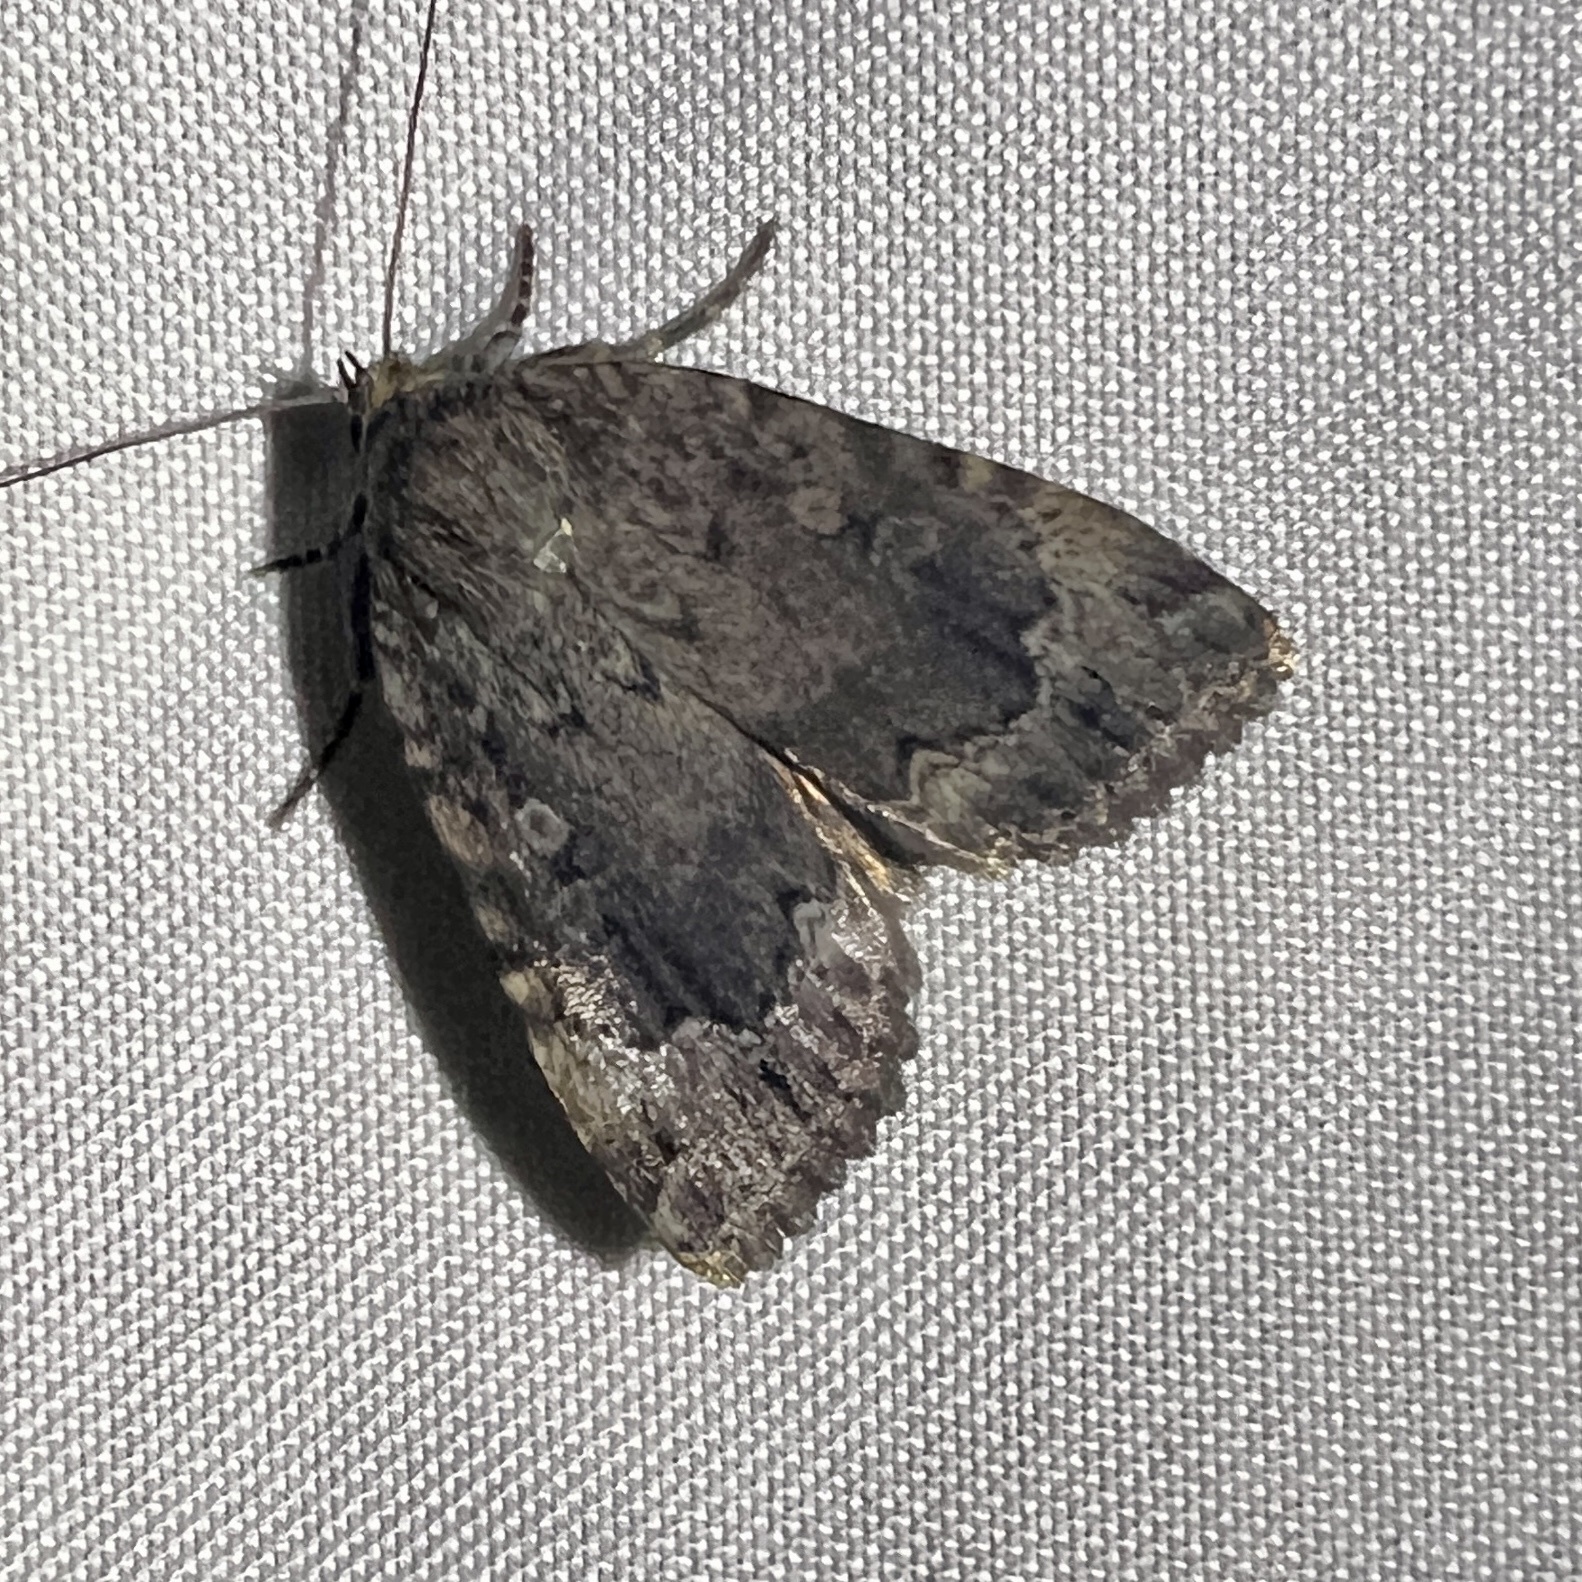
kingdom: Animalia
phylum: Arthropoda
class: Insecta
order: Lepidoptera
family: Noctuidae
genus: Amphipyra
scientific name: Amphipyra pyramidoides
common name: American copper underwing
